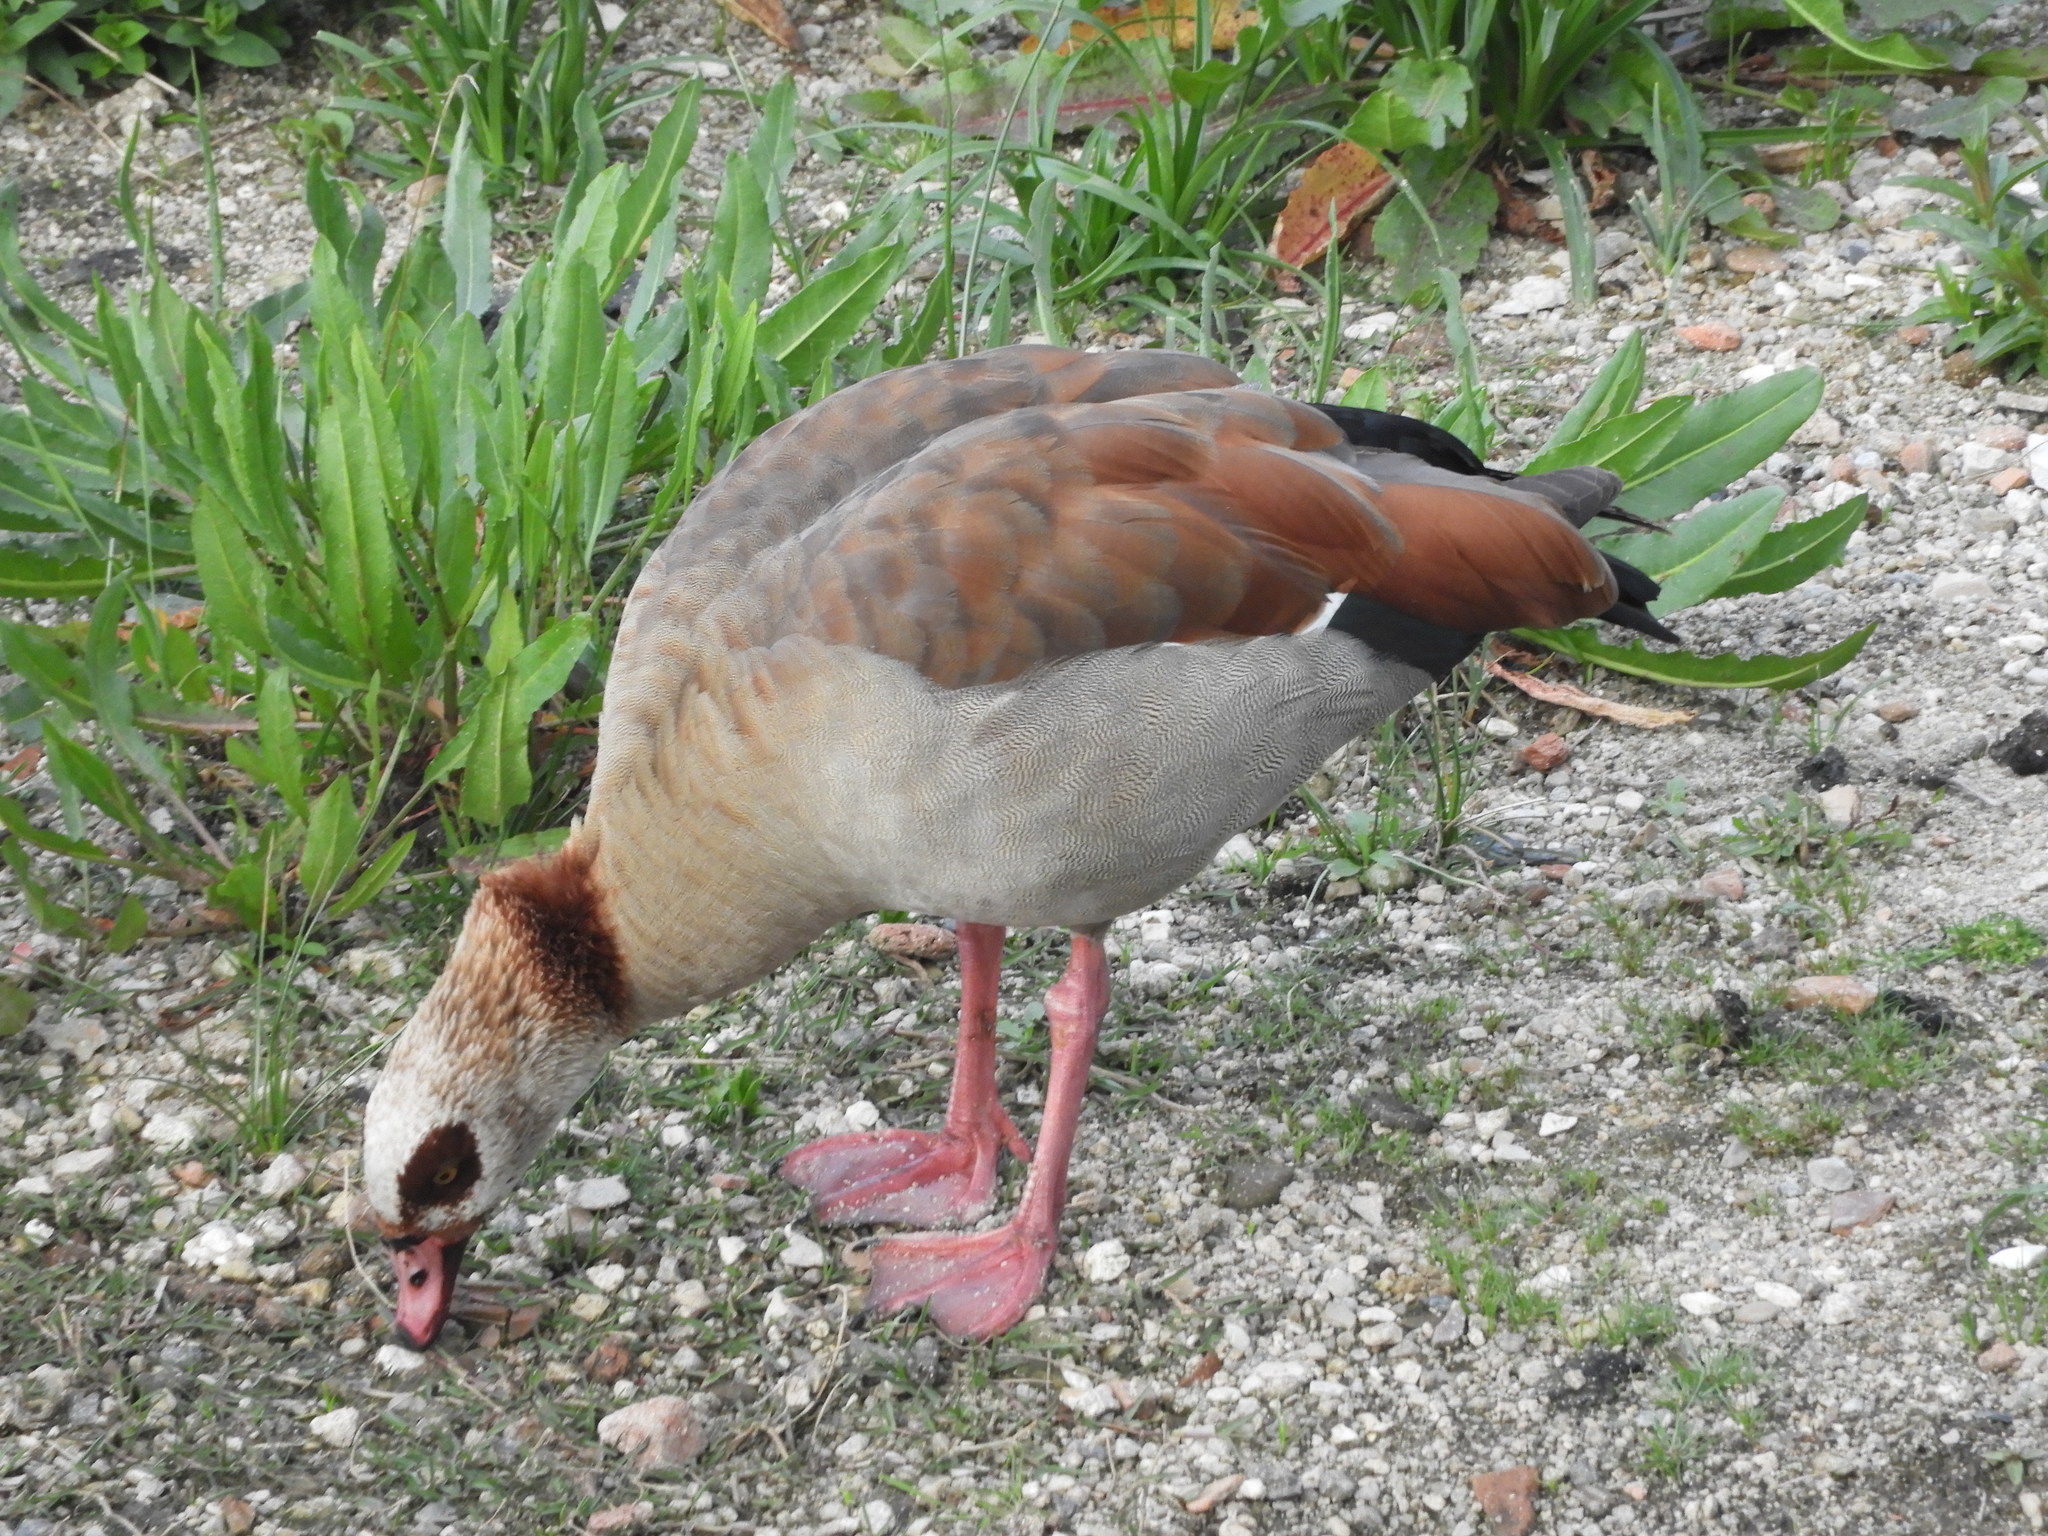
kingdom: Animalia
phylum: Chordata
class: Aves
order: Anseriformes
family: Anatidae
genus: Alopochen
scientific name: Alopochen aegyptiaca
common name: Egyptian goose
